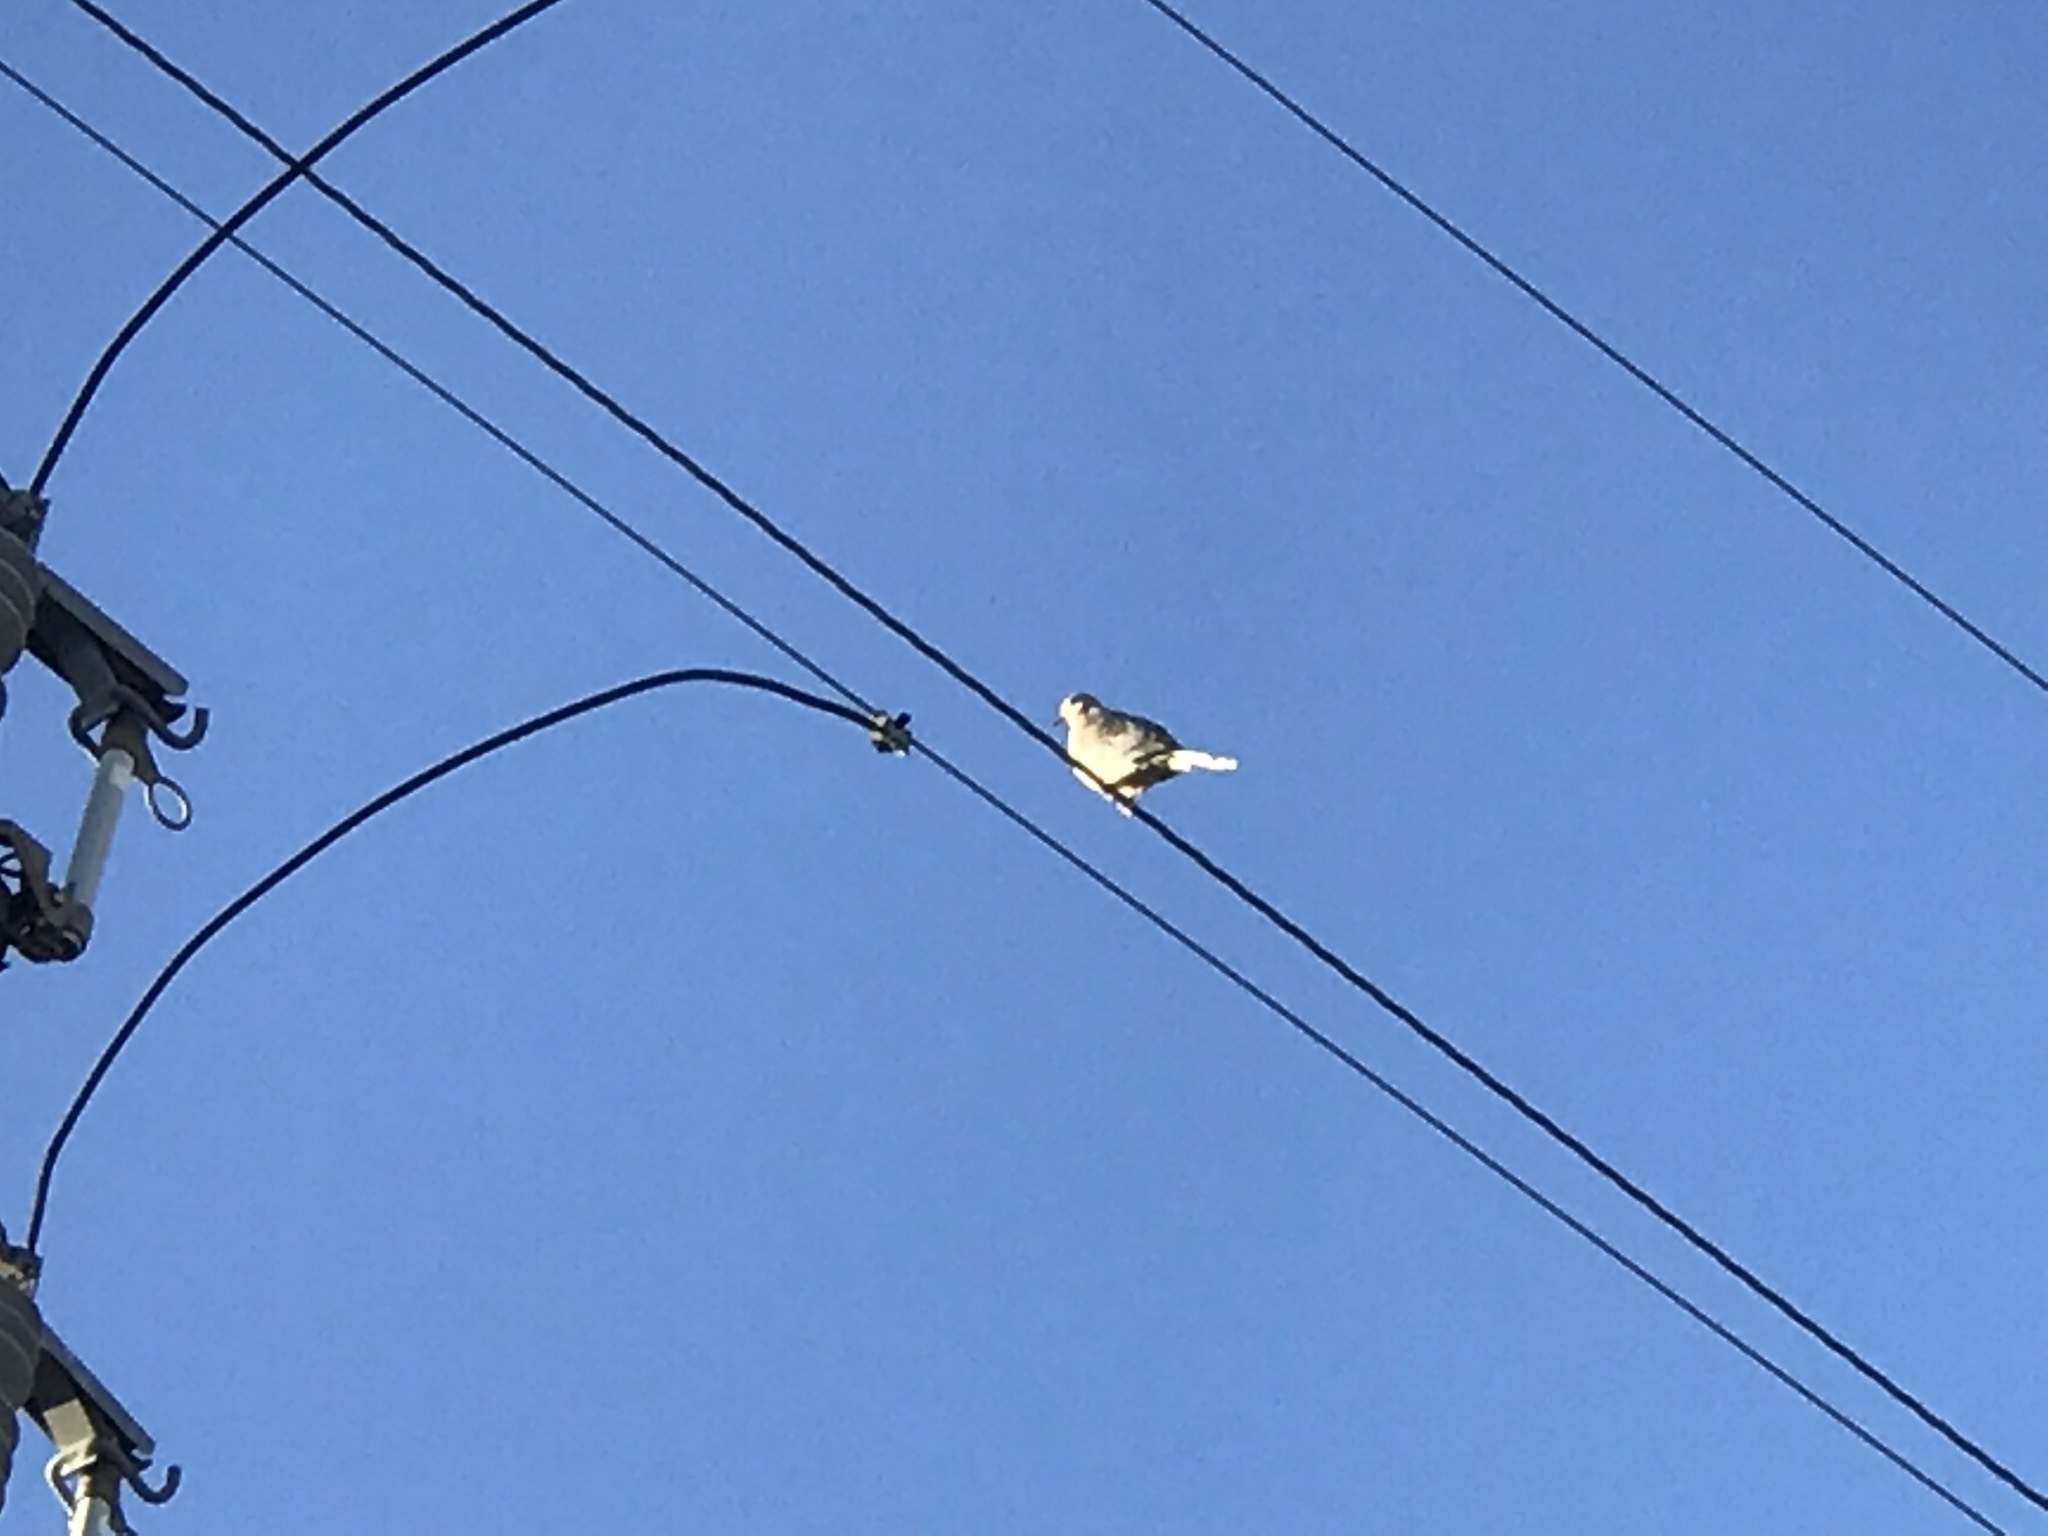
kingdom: Animalia
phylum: Chordata
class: Aves
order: Columbiformes
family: Columbidae
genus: Zenaida
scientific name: Zenaida macroura
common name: Mourning dove
